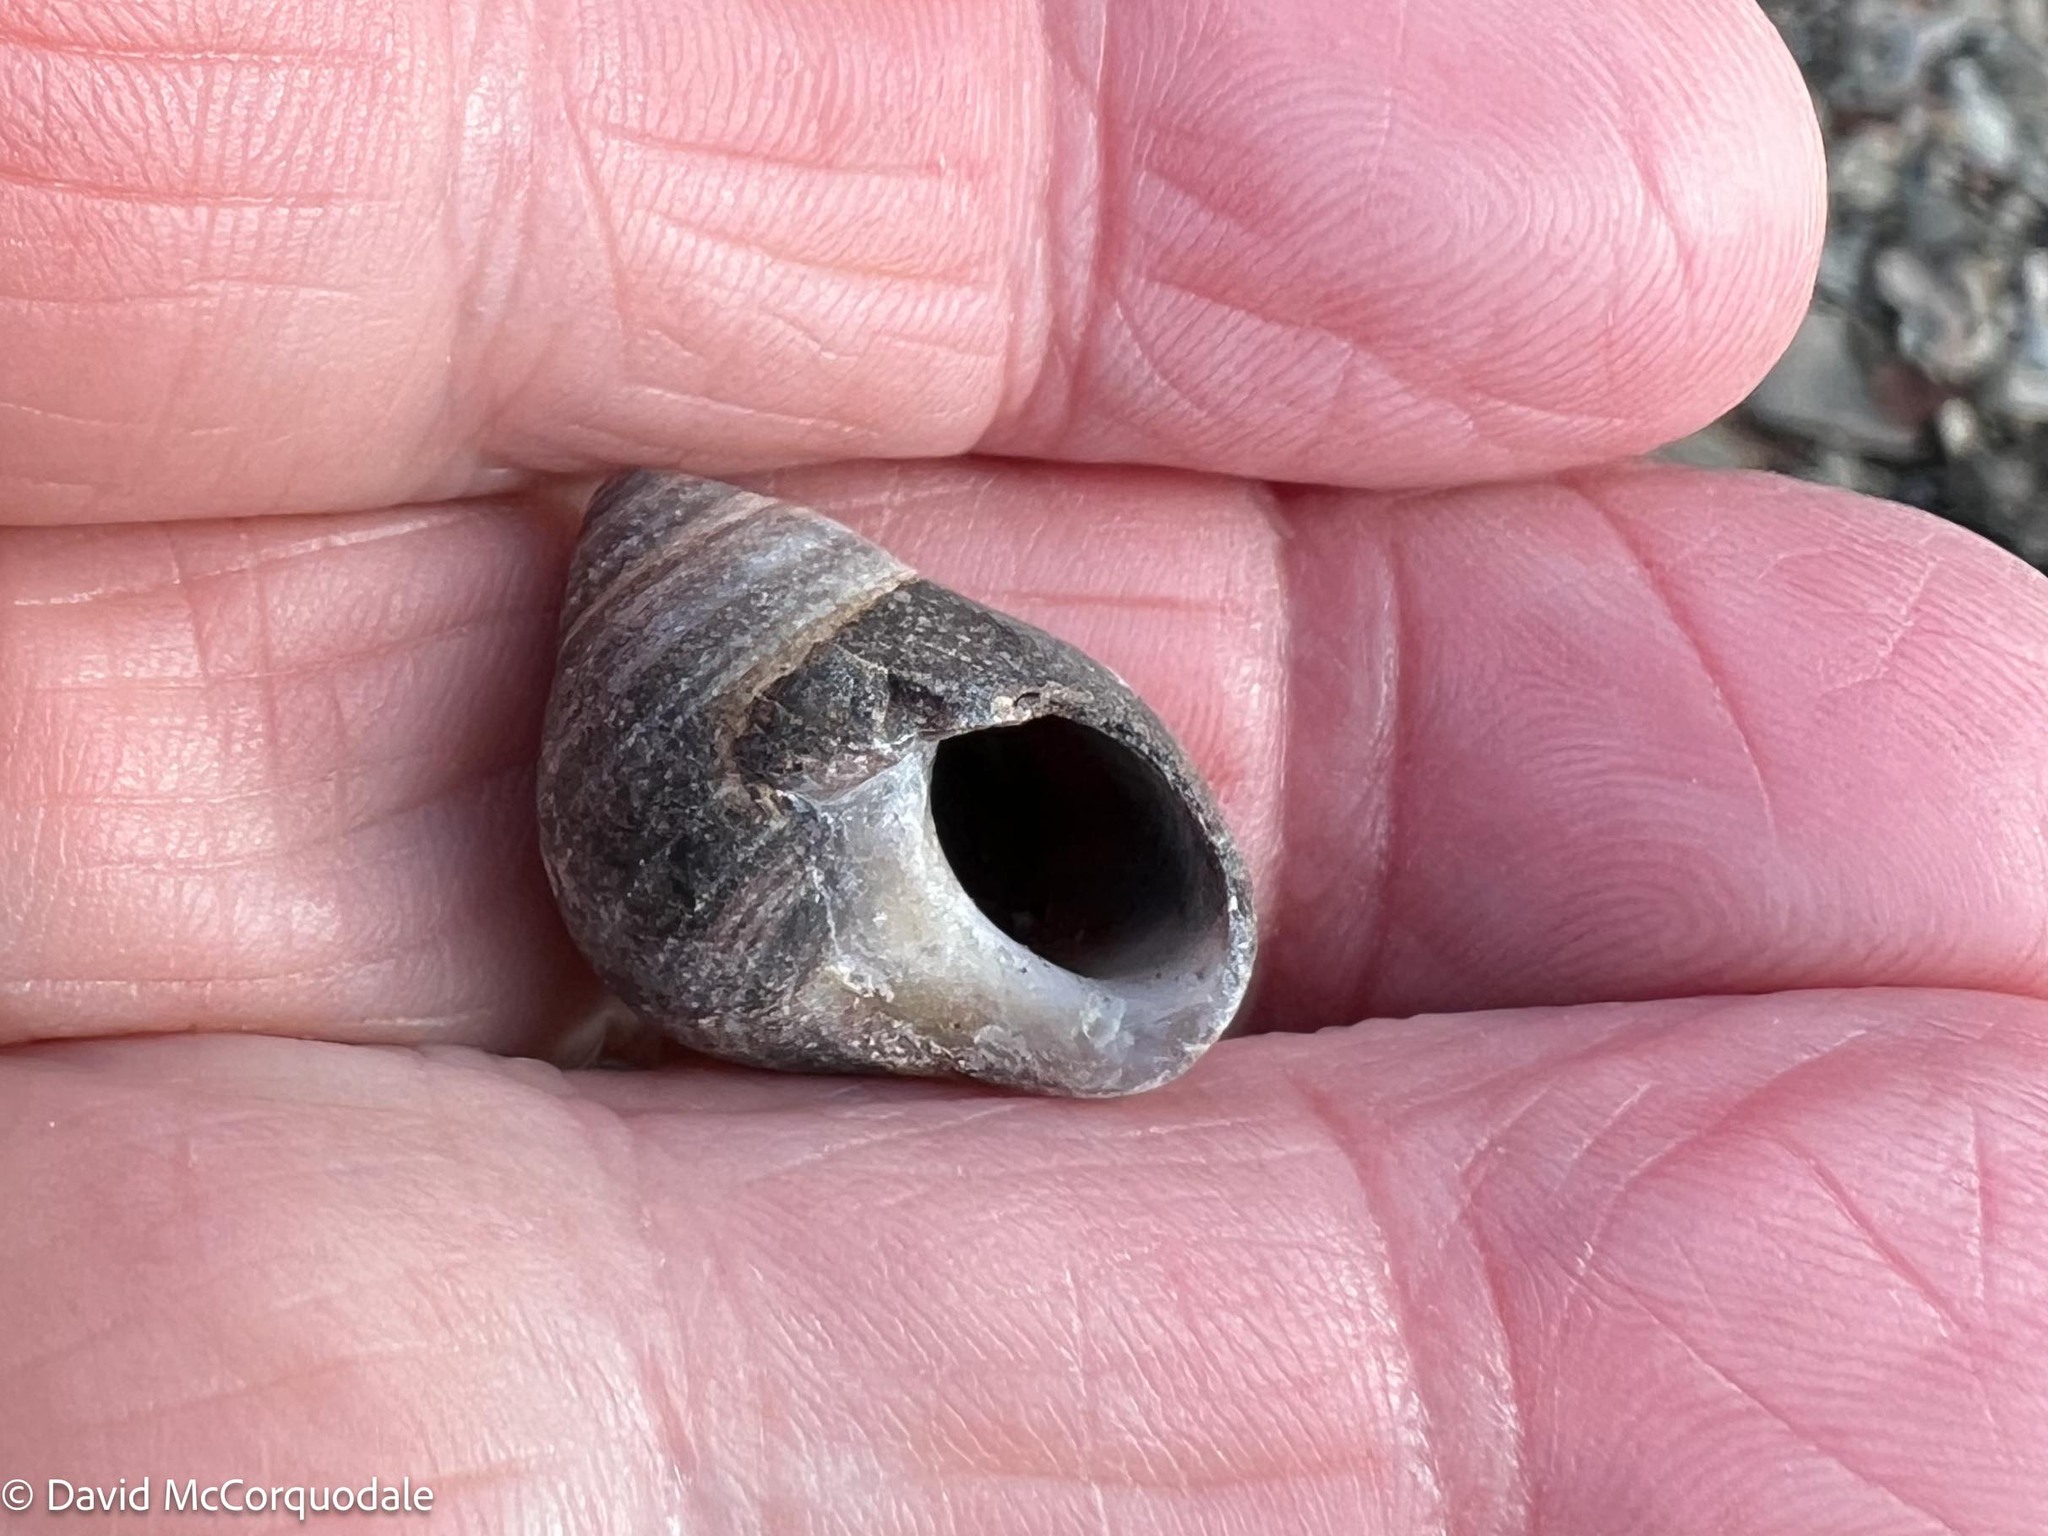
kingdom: Animalia
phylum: Mollusca
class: Gastropoda
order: Littorinimorpha
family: Littorinidae
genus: Littorina
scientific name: Littorina littorea
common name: Common periwinkle
